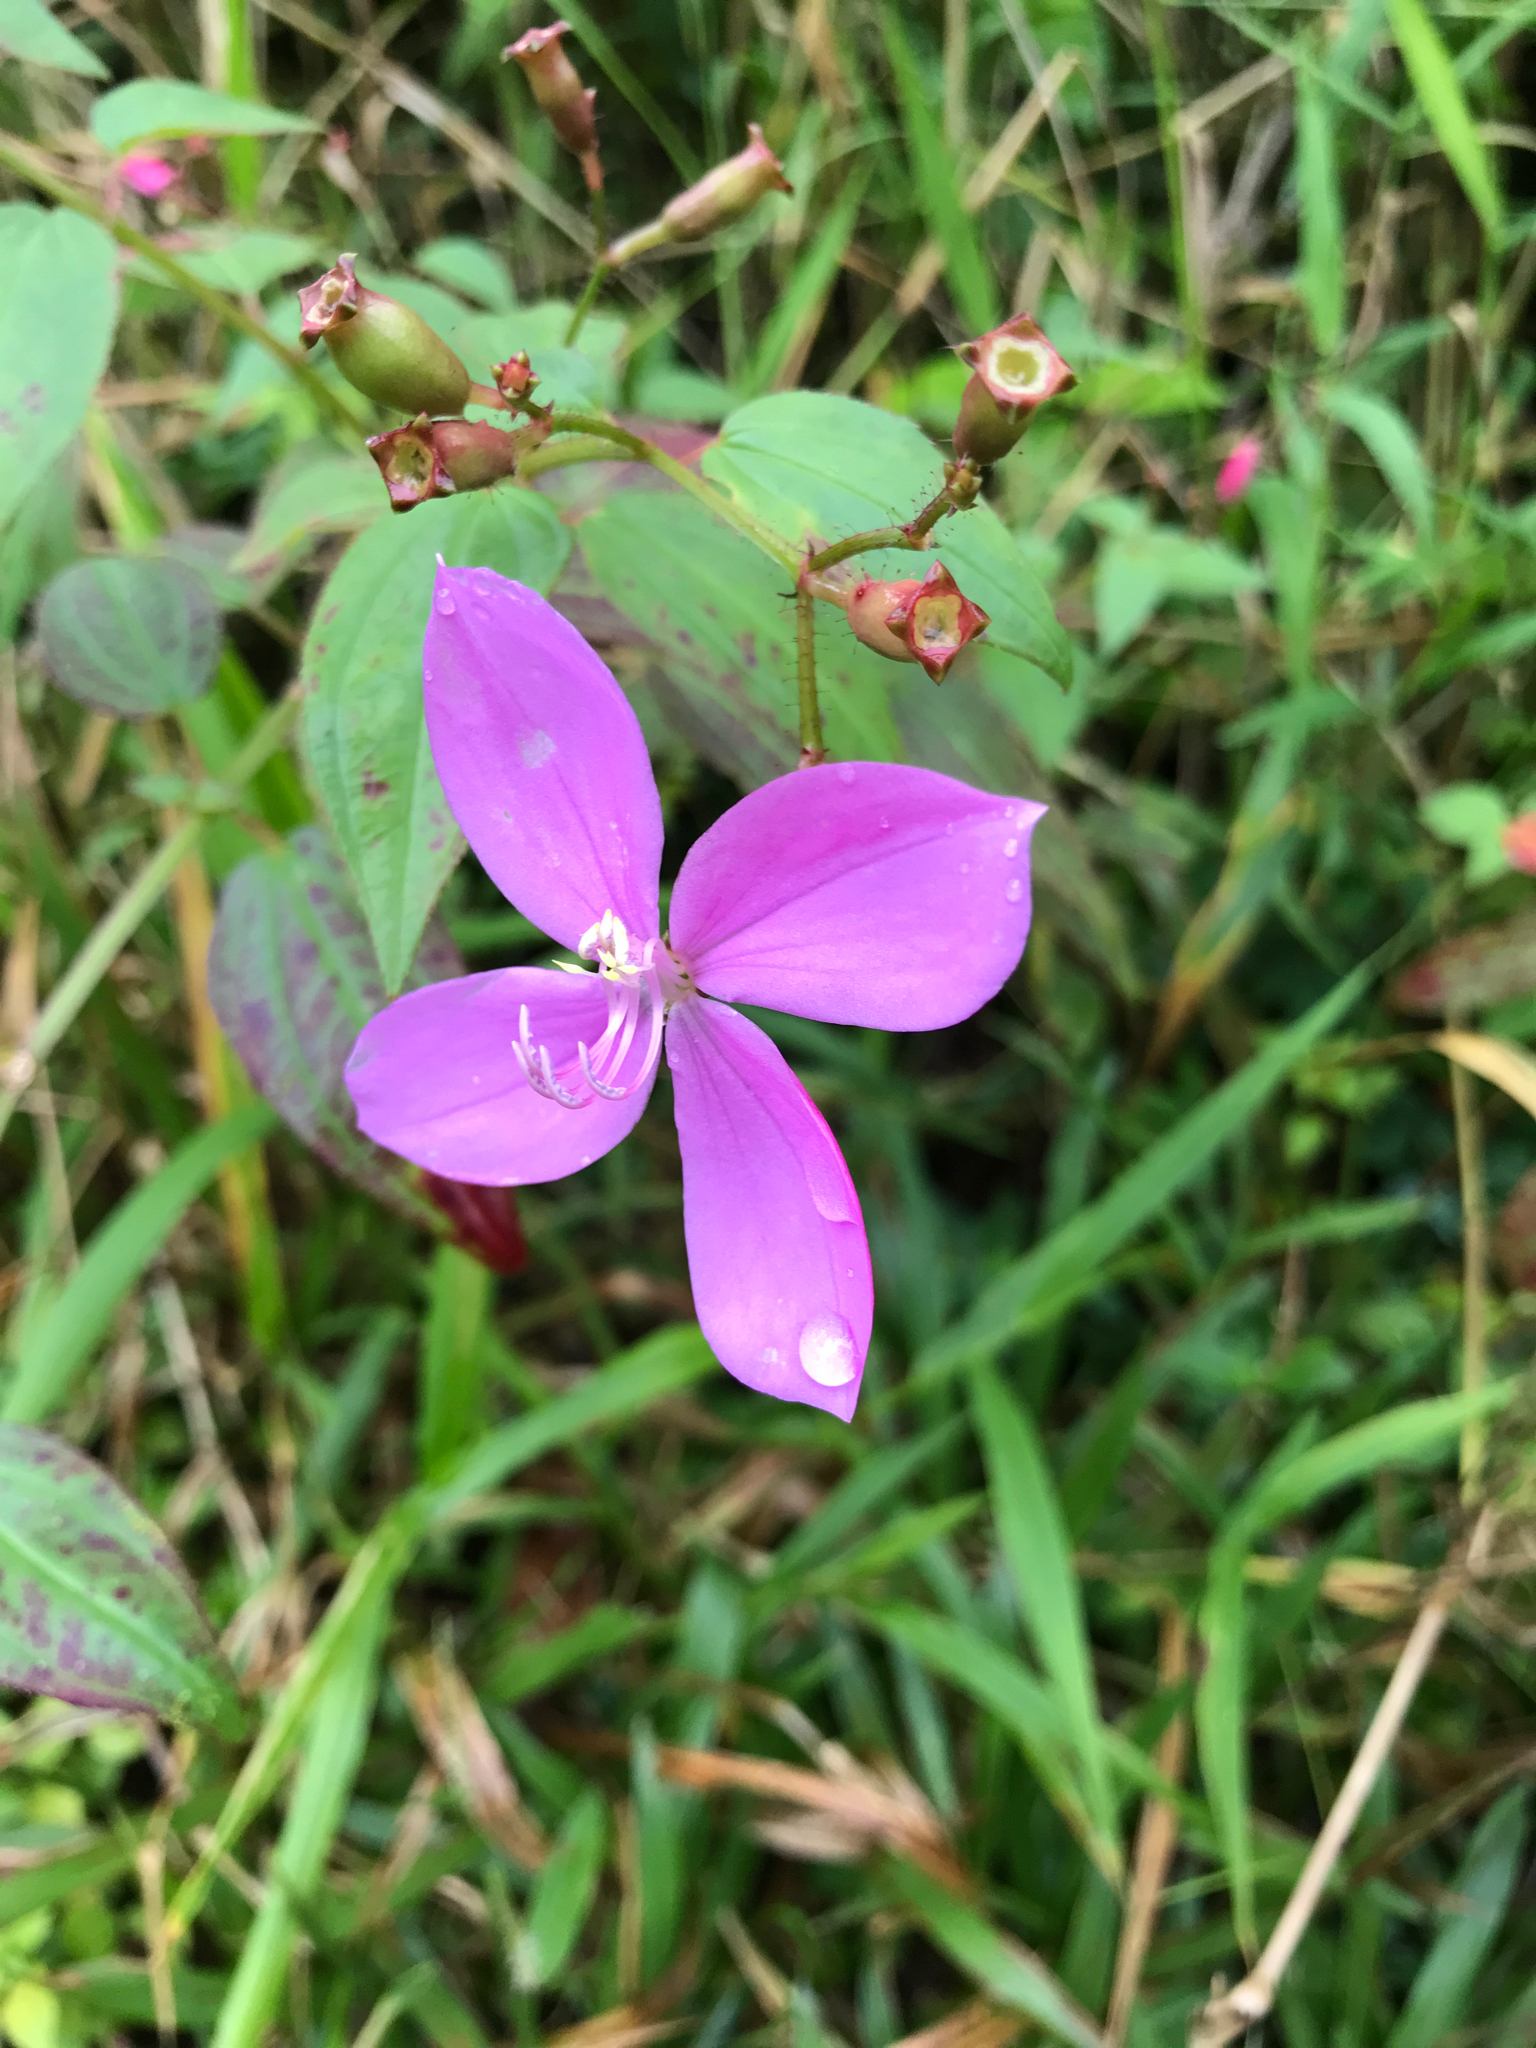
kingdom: Plantae
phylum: Tracheophyta
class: Magnoliopsida
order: Myrtales
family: Melastomataceae
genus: Arthrostemma
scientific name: Arthrostemma ciliatum
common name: Everblooming eavender
